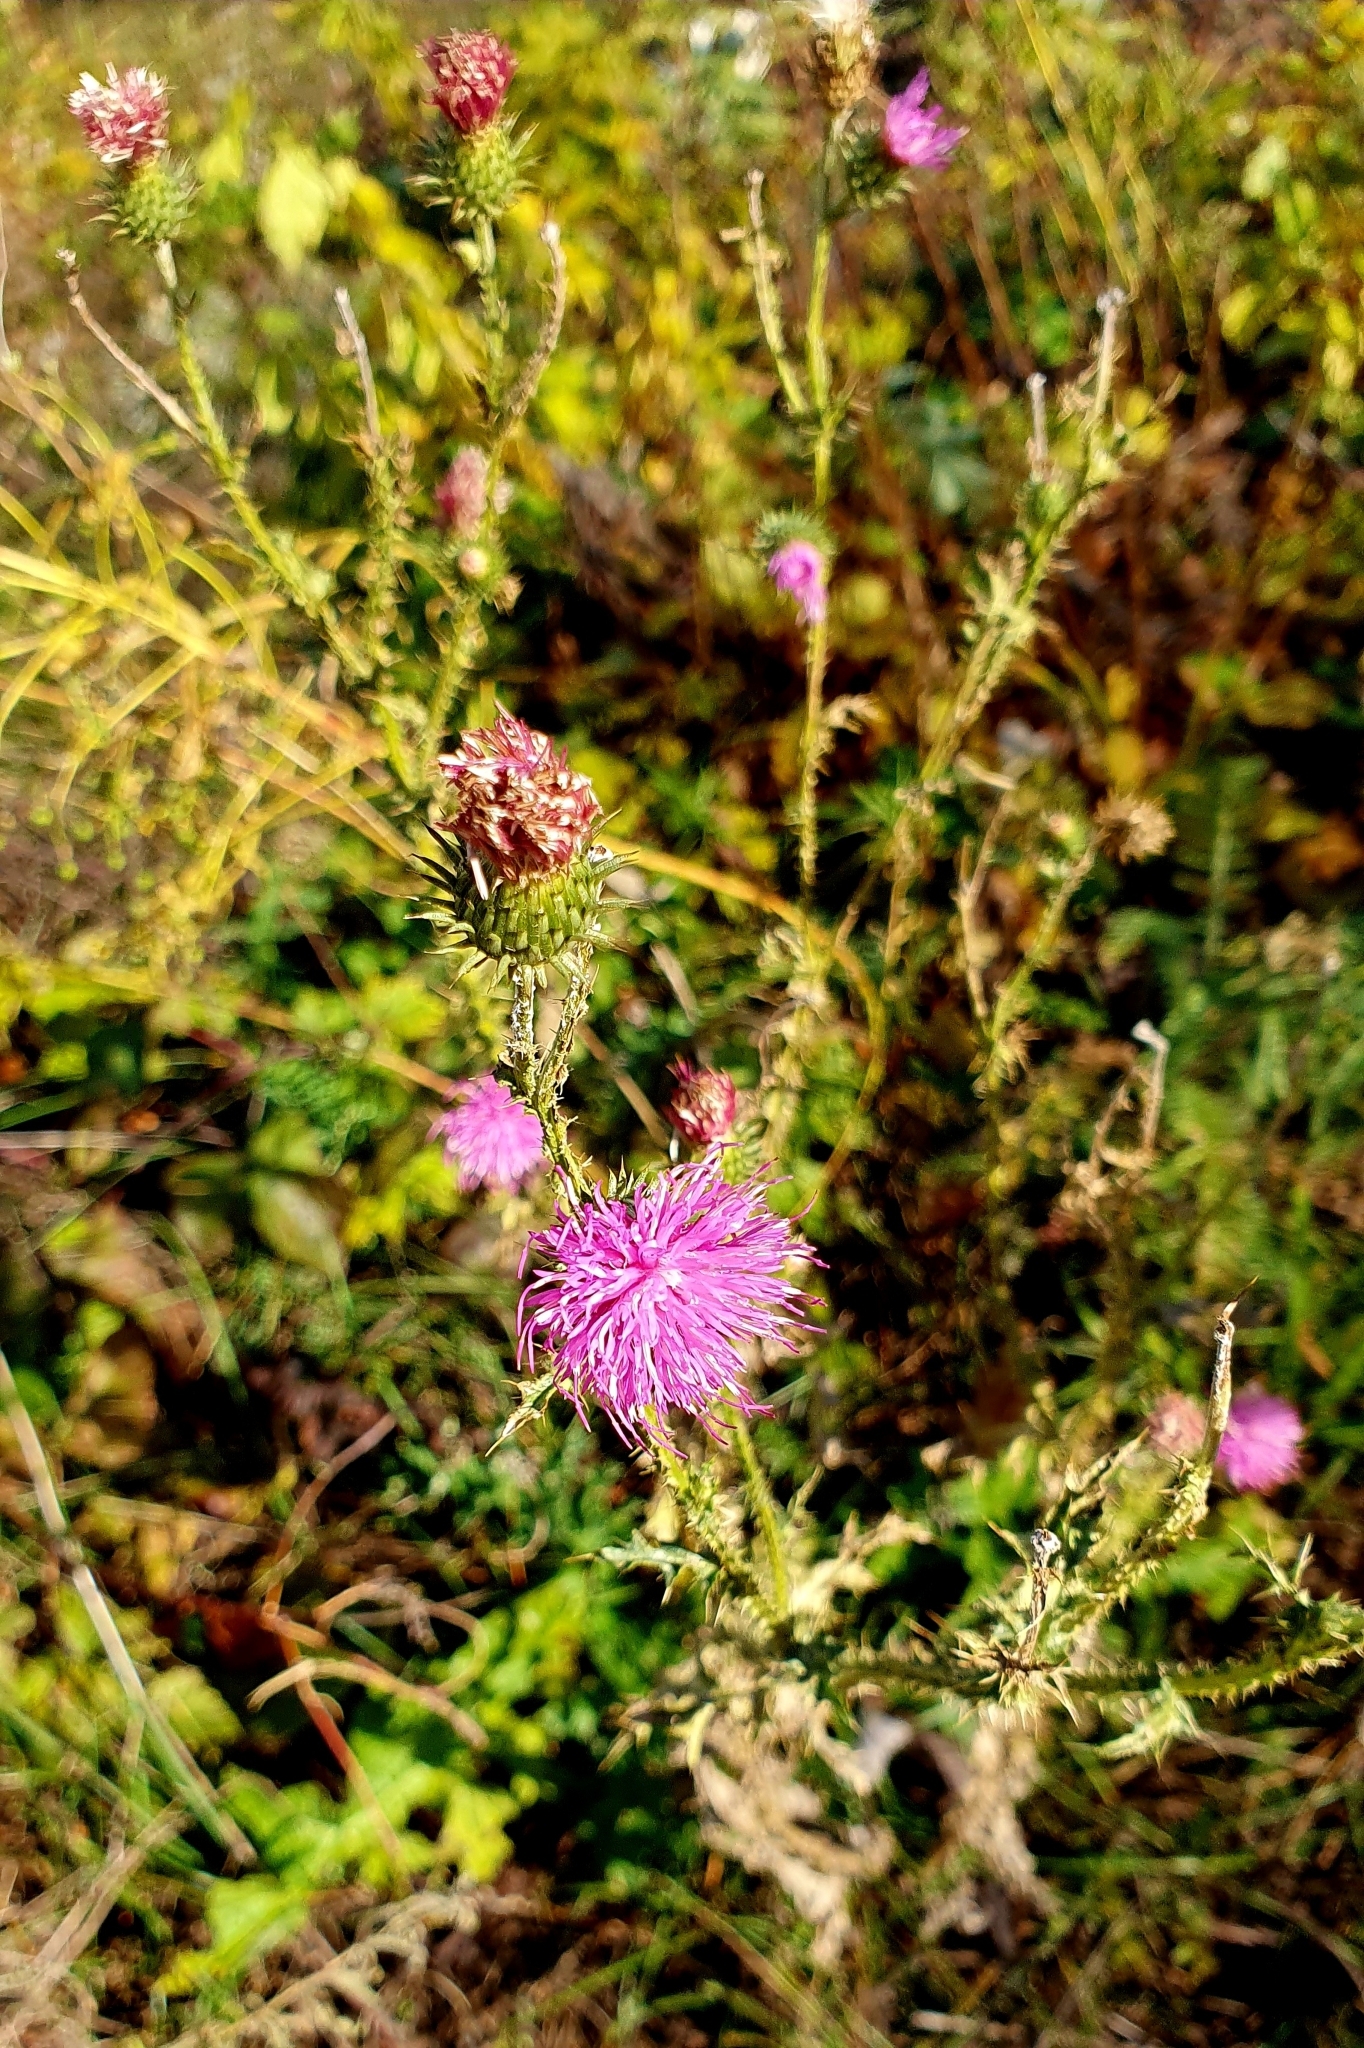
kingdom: Plantae
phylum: Tracheophyta
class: Magnoliopsida
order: Asterales
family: Asteraceae
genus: Carduus
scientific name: Carduus acanthoides
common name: Plumeless thistle
